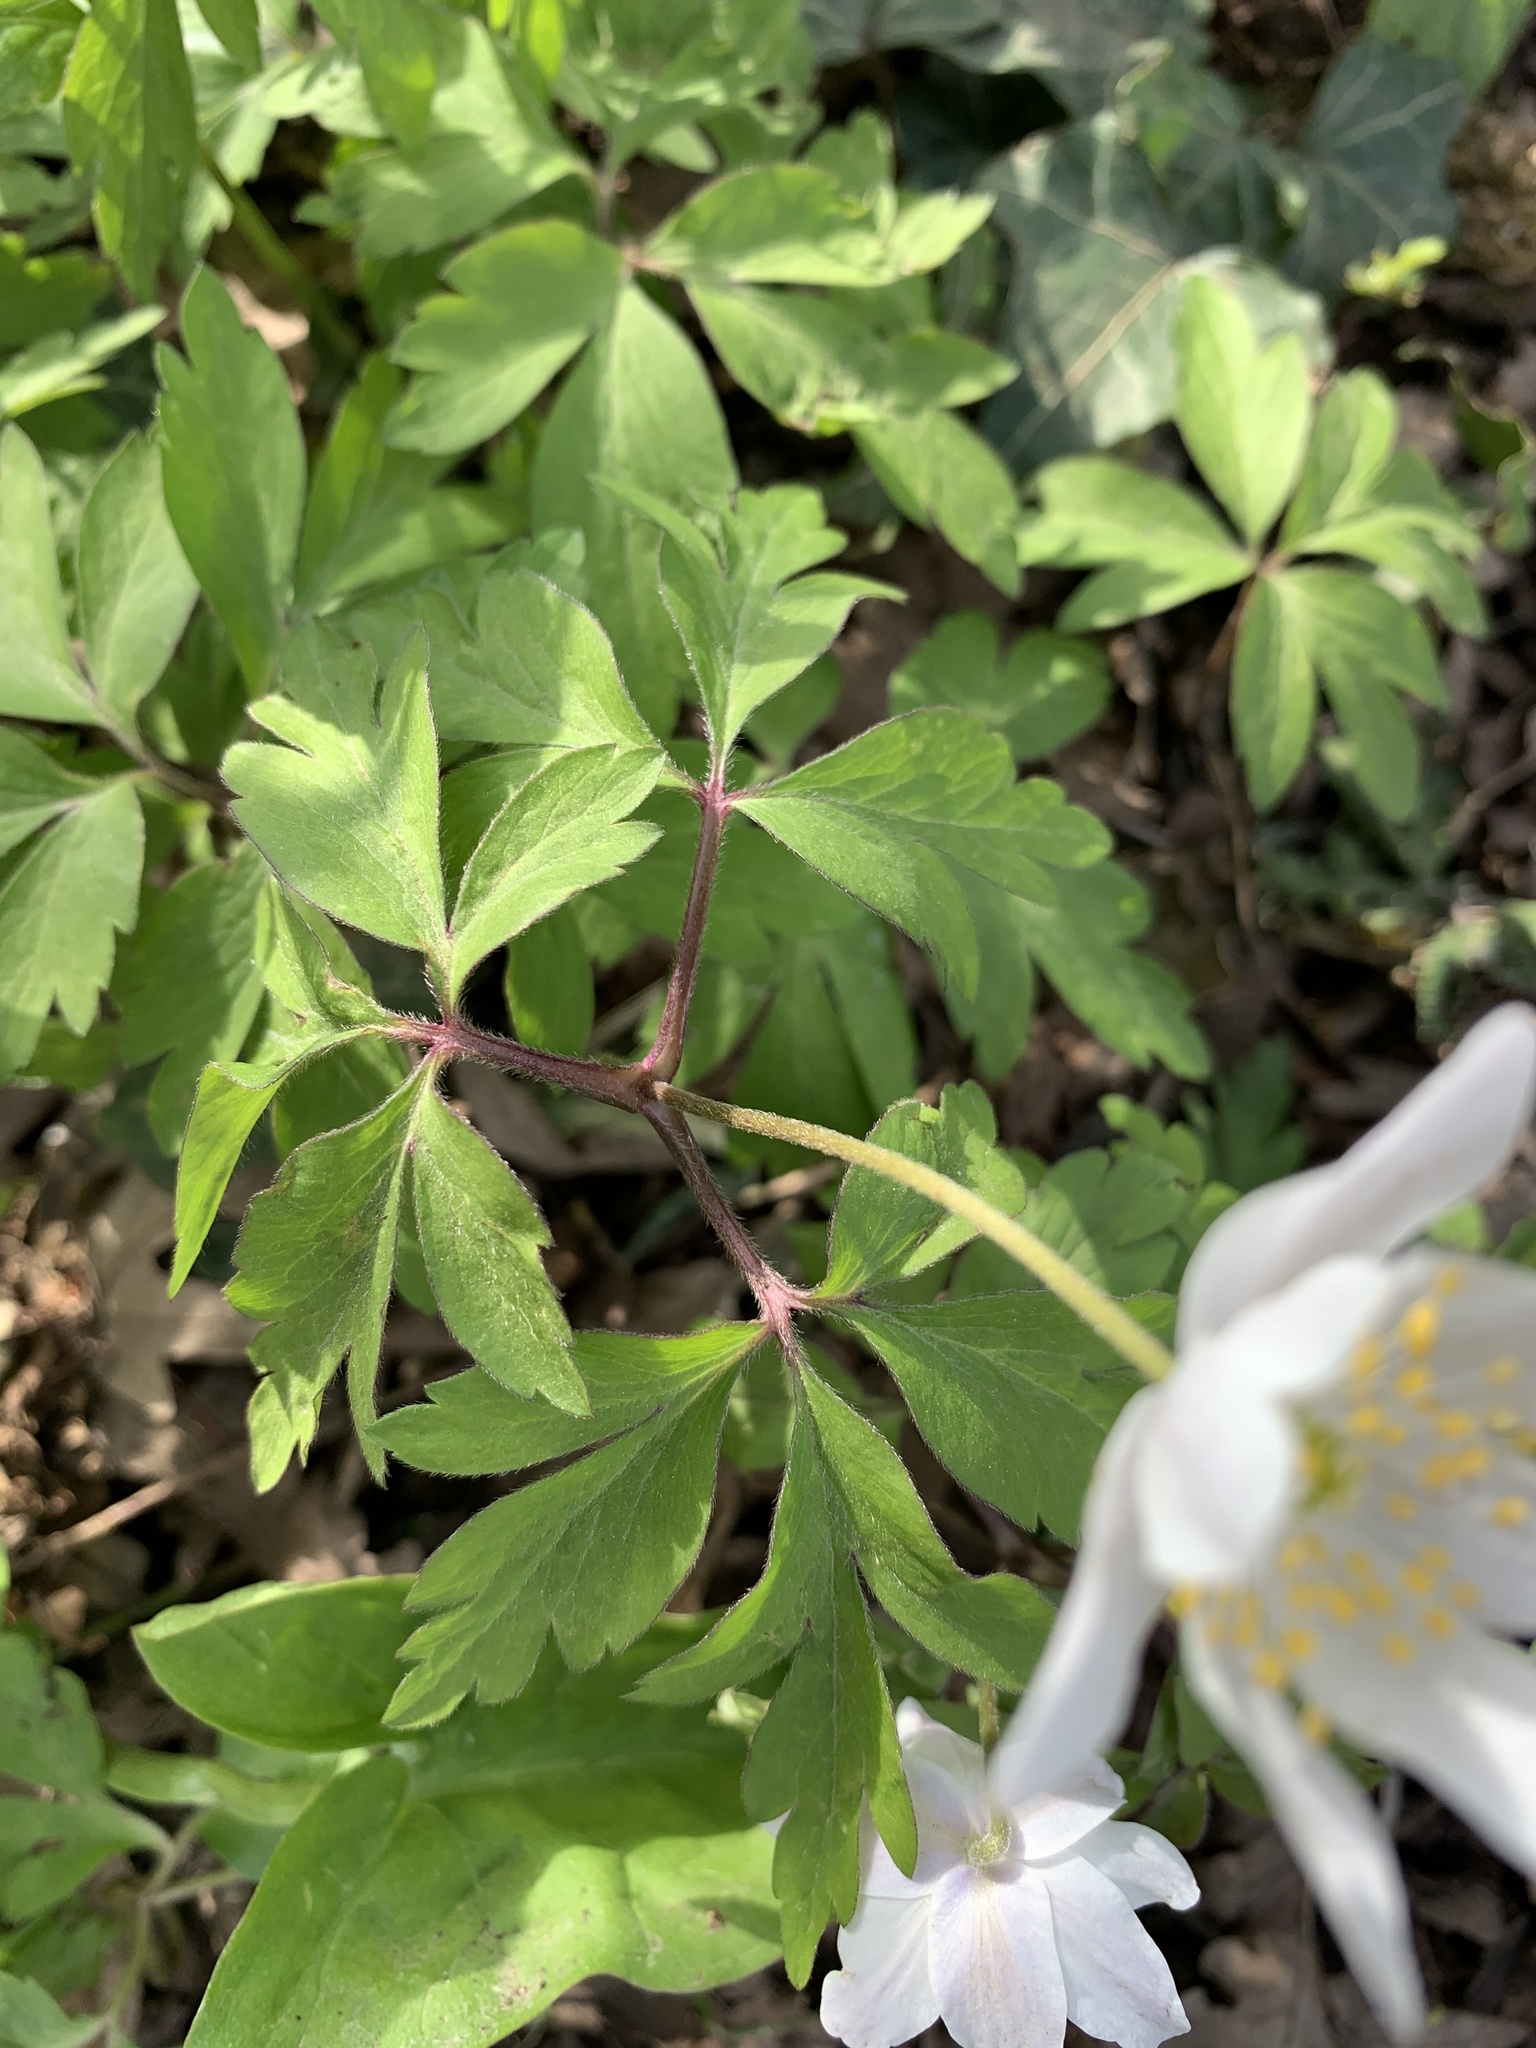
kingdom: Plantae
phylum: Tracheophyta
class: Magnoliopsida
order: Ranunculales
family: Ranunculaceae
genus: Anemone
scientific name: Anemone nemorosa
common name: Wood anemone
